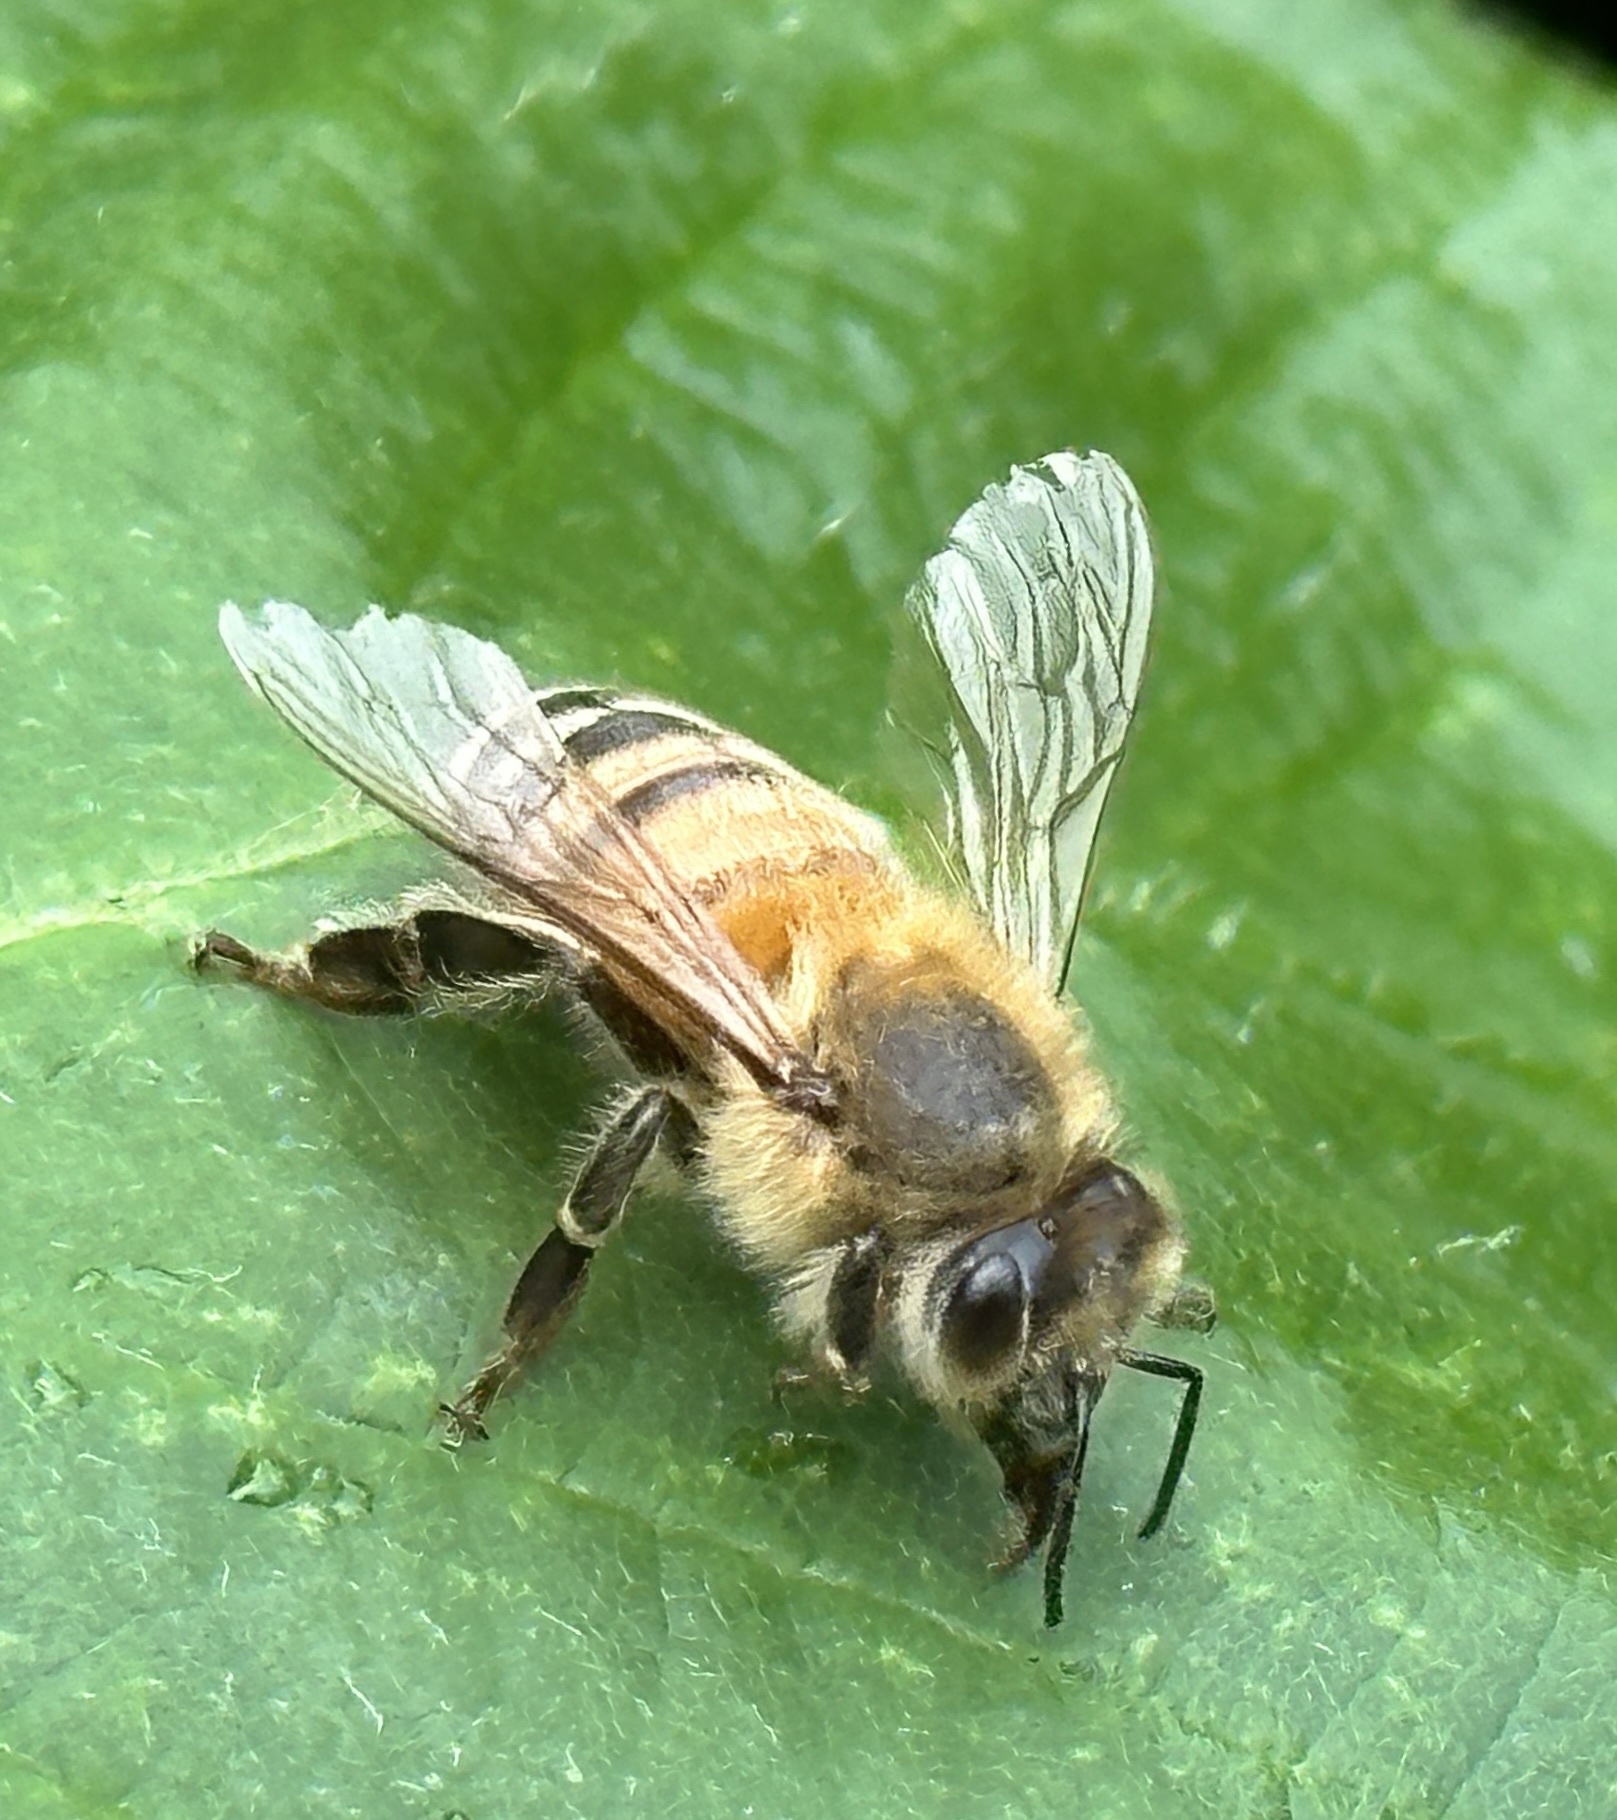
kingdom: Animalia
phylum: Arthropoda
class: Insecta
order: Hymenoptera
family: Apidae
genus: Apis
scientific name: Apis mellifera
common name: Honey bee
